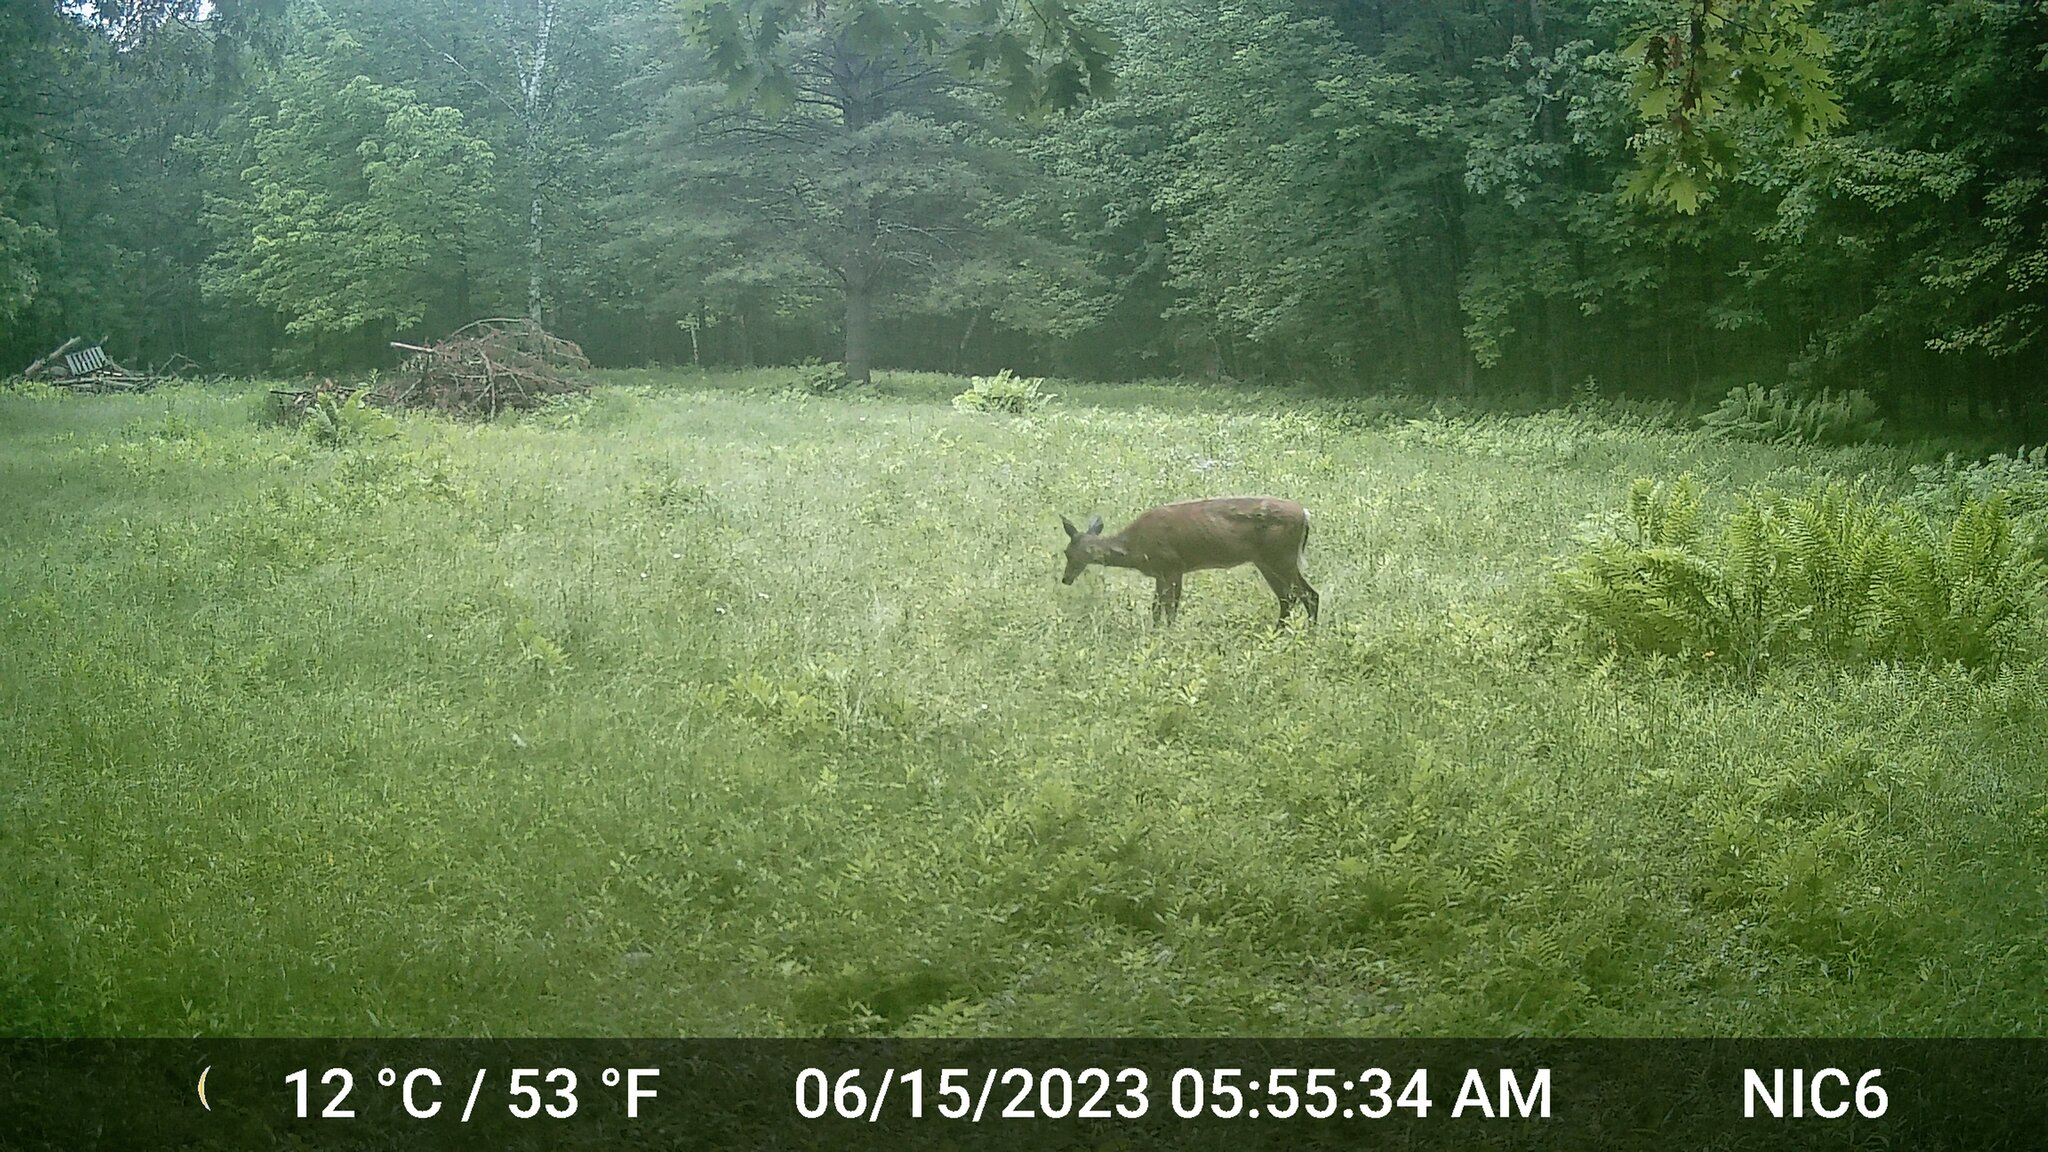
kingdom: Animalia
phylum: Chordata
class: Mammalia
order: Artiodactyla
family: Cervidae
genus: Odocoileus
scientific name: Odocoileus virginianus
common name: White-tailed deer
